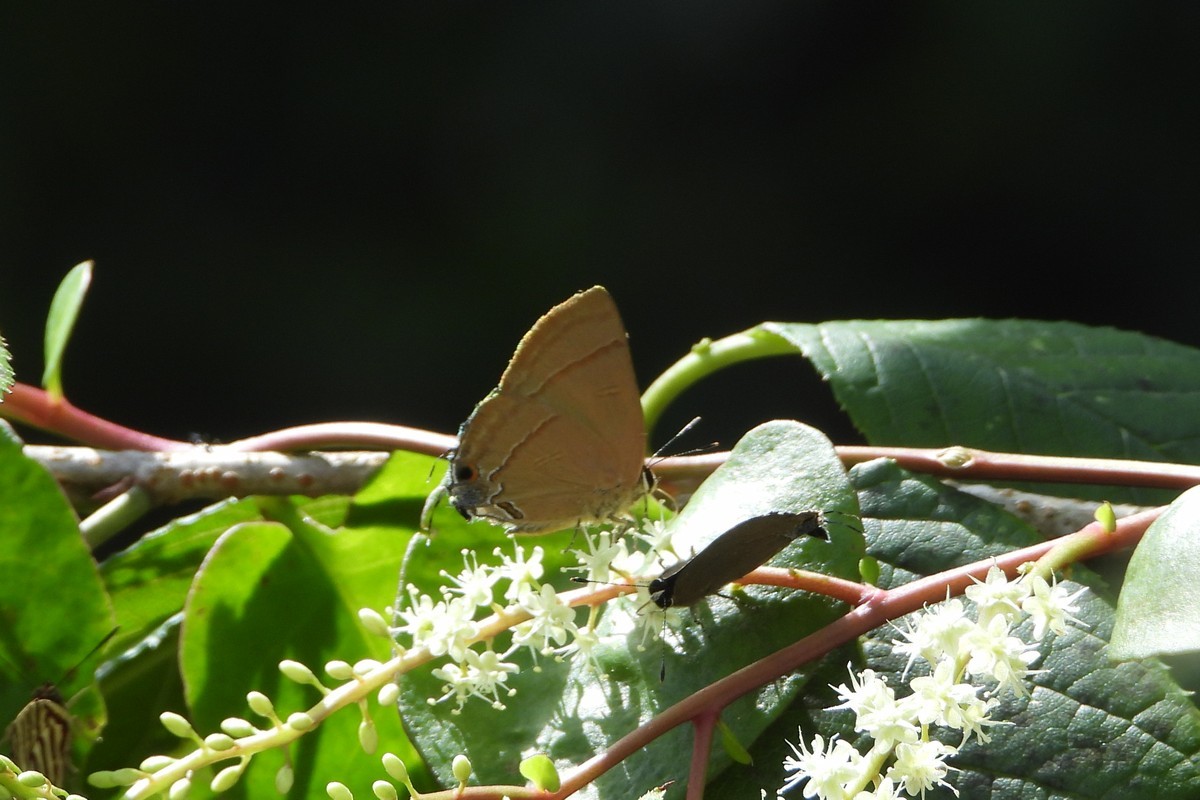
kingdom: Animalia
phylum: Arthropoda
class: Insecta
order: Lepidoptera
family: Lycaenidae
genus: Rapala
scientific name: Rapala nissa
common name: Common flash
